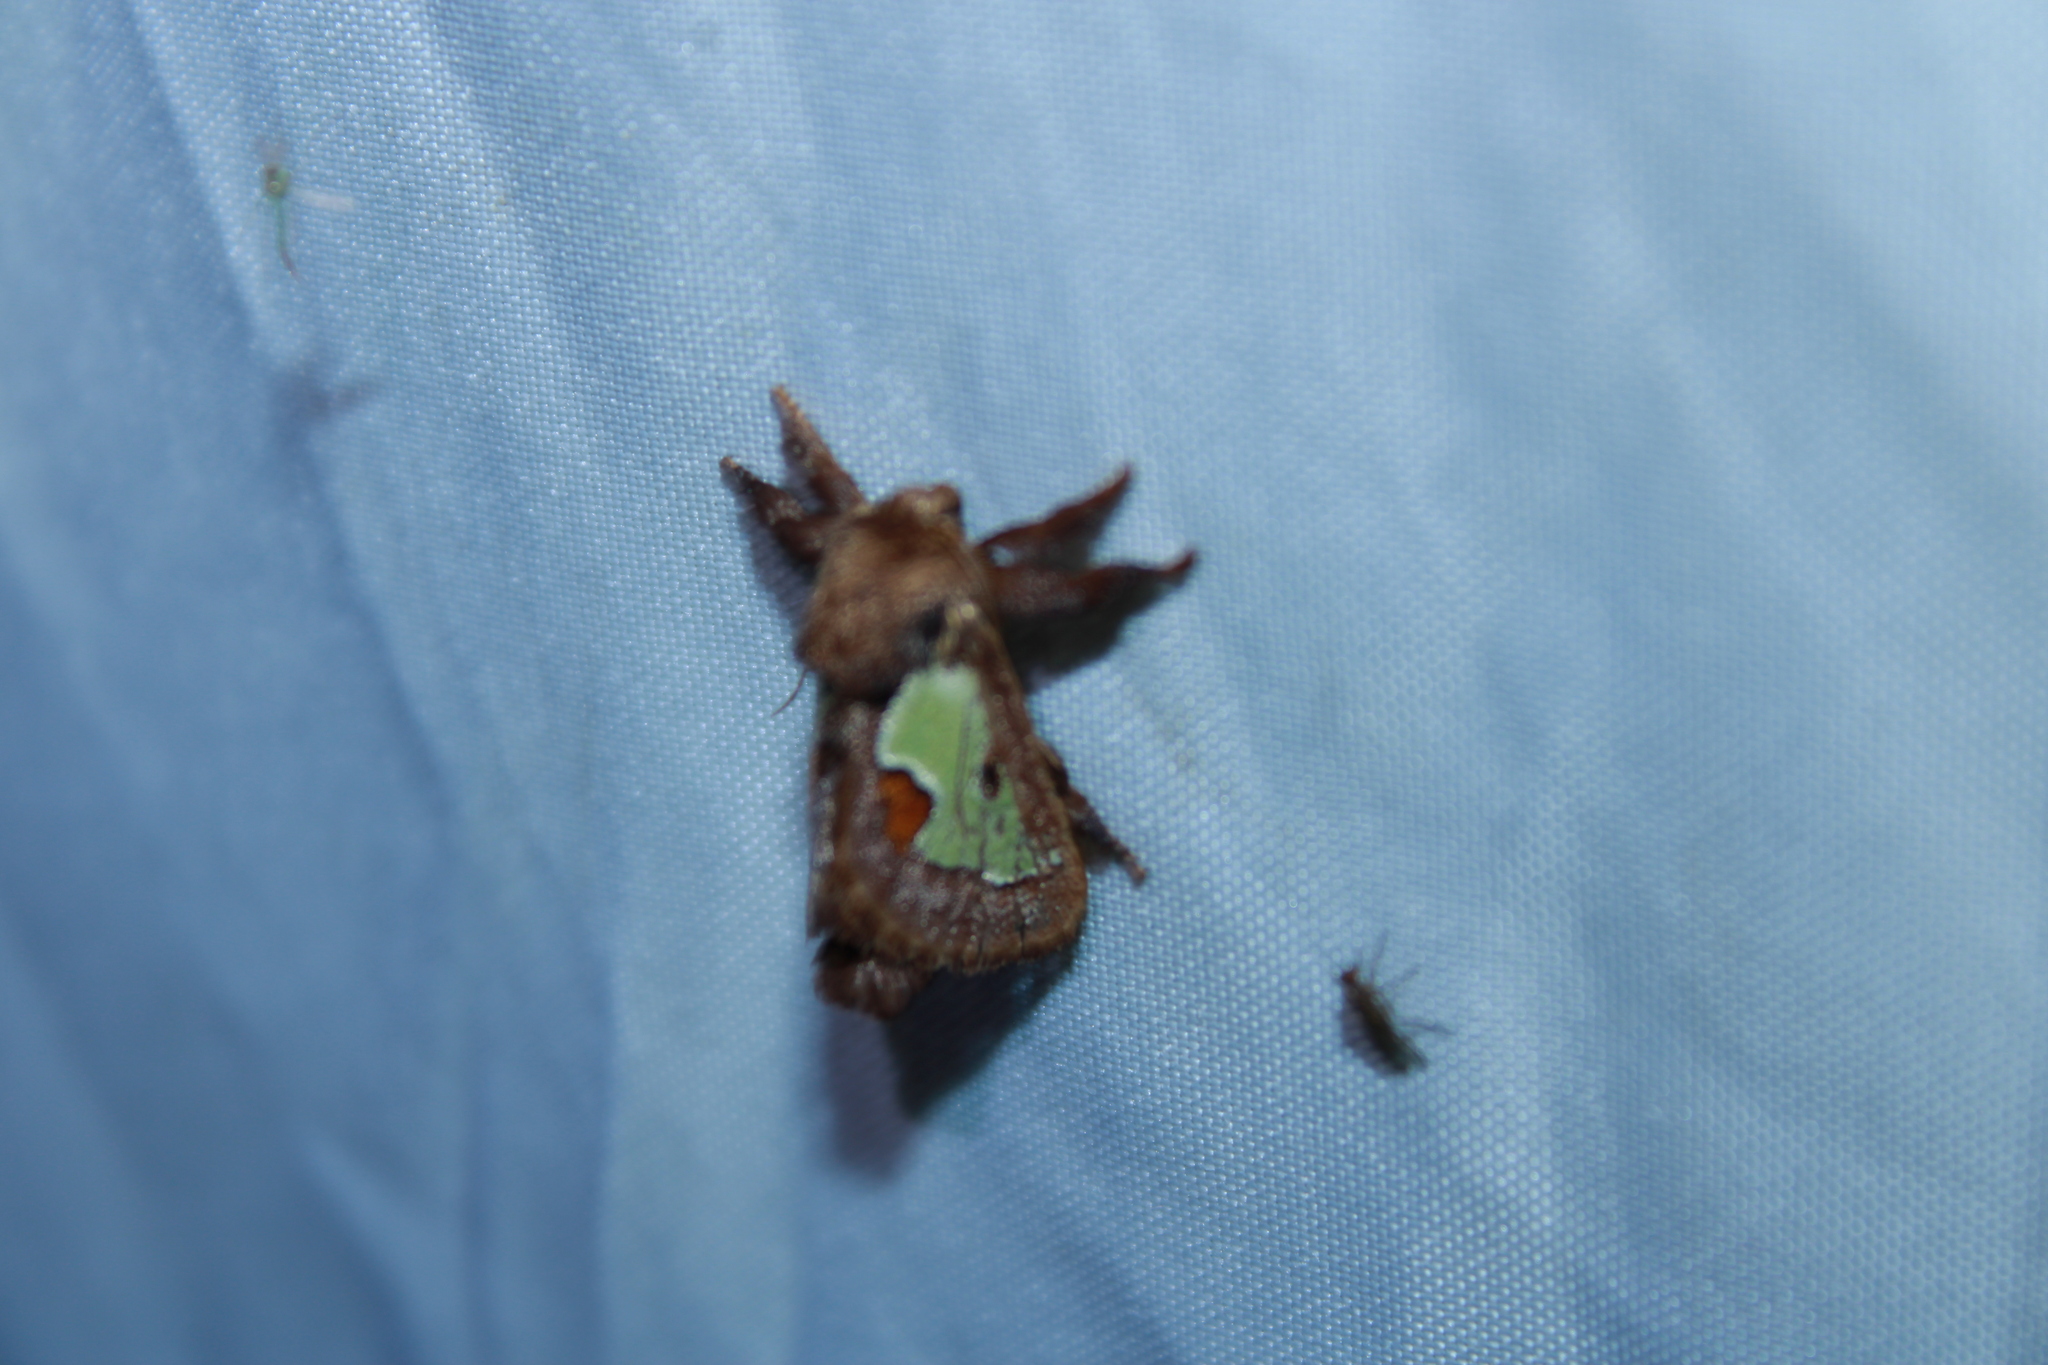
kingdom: Animalia
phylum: Arthropoda
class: Insecta
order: Lepidoptera
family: Limacodidae
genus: Euclea
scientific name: Euclea delphinii
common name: Spiny oak-slug moth
